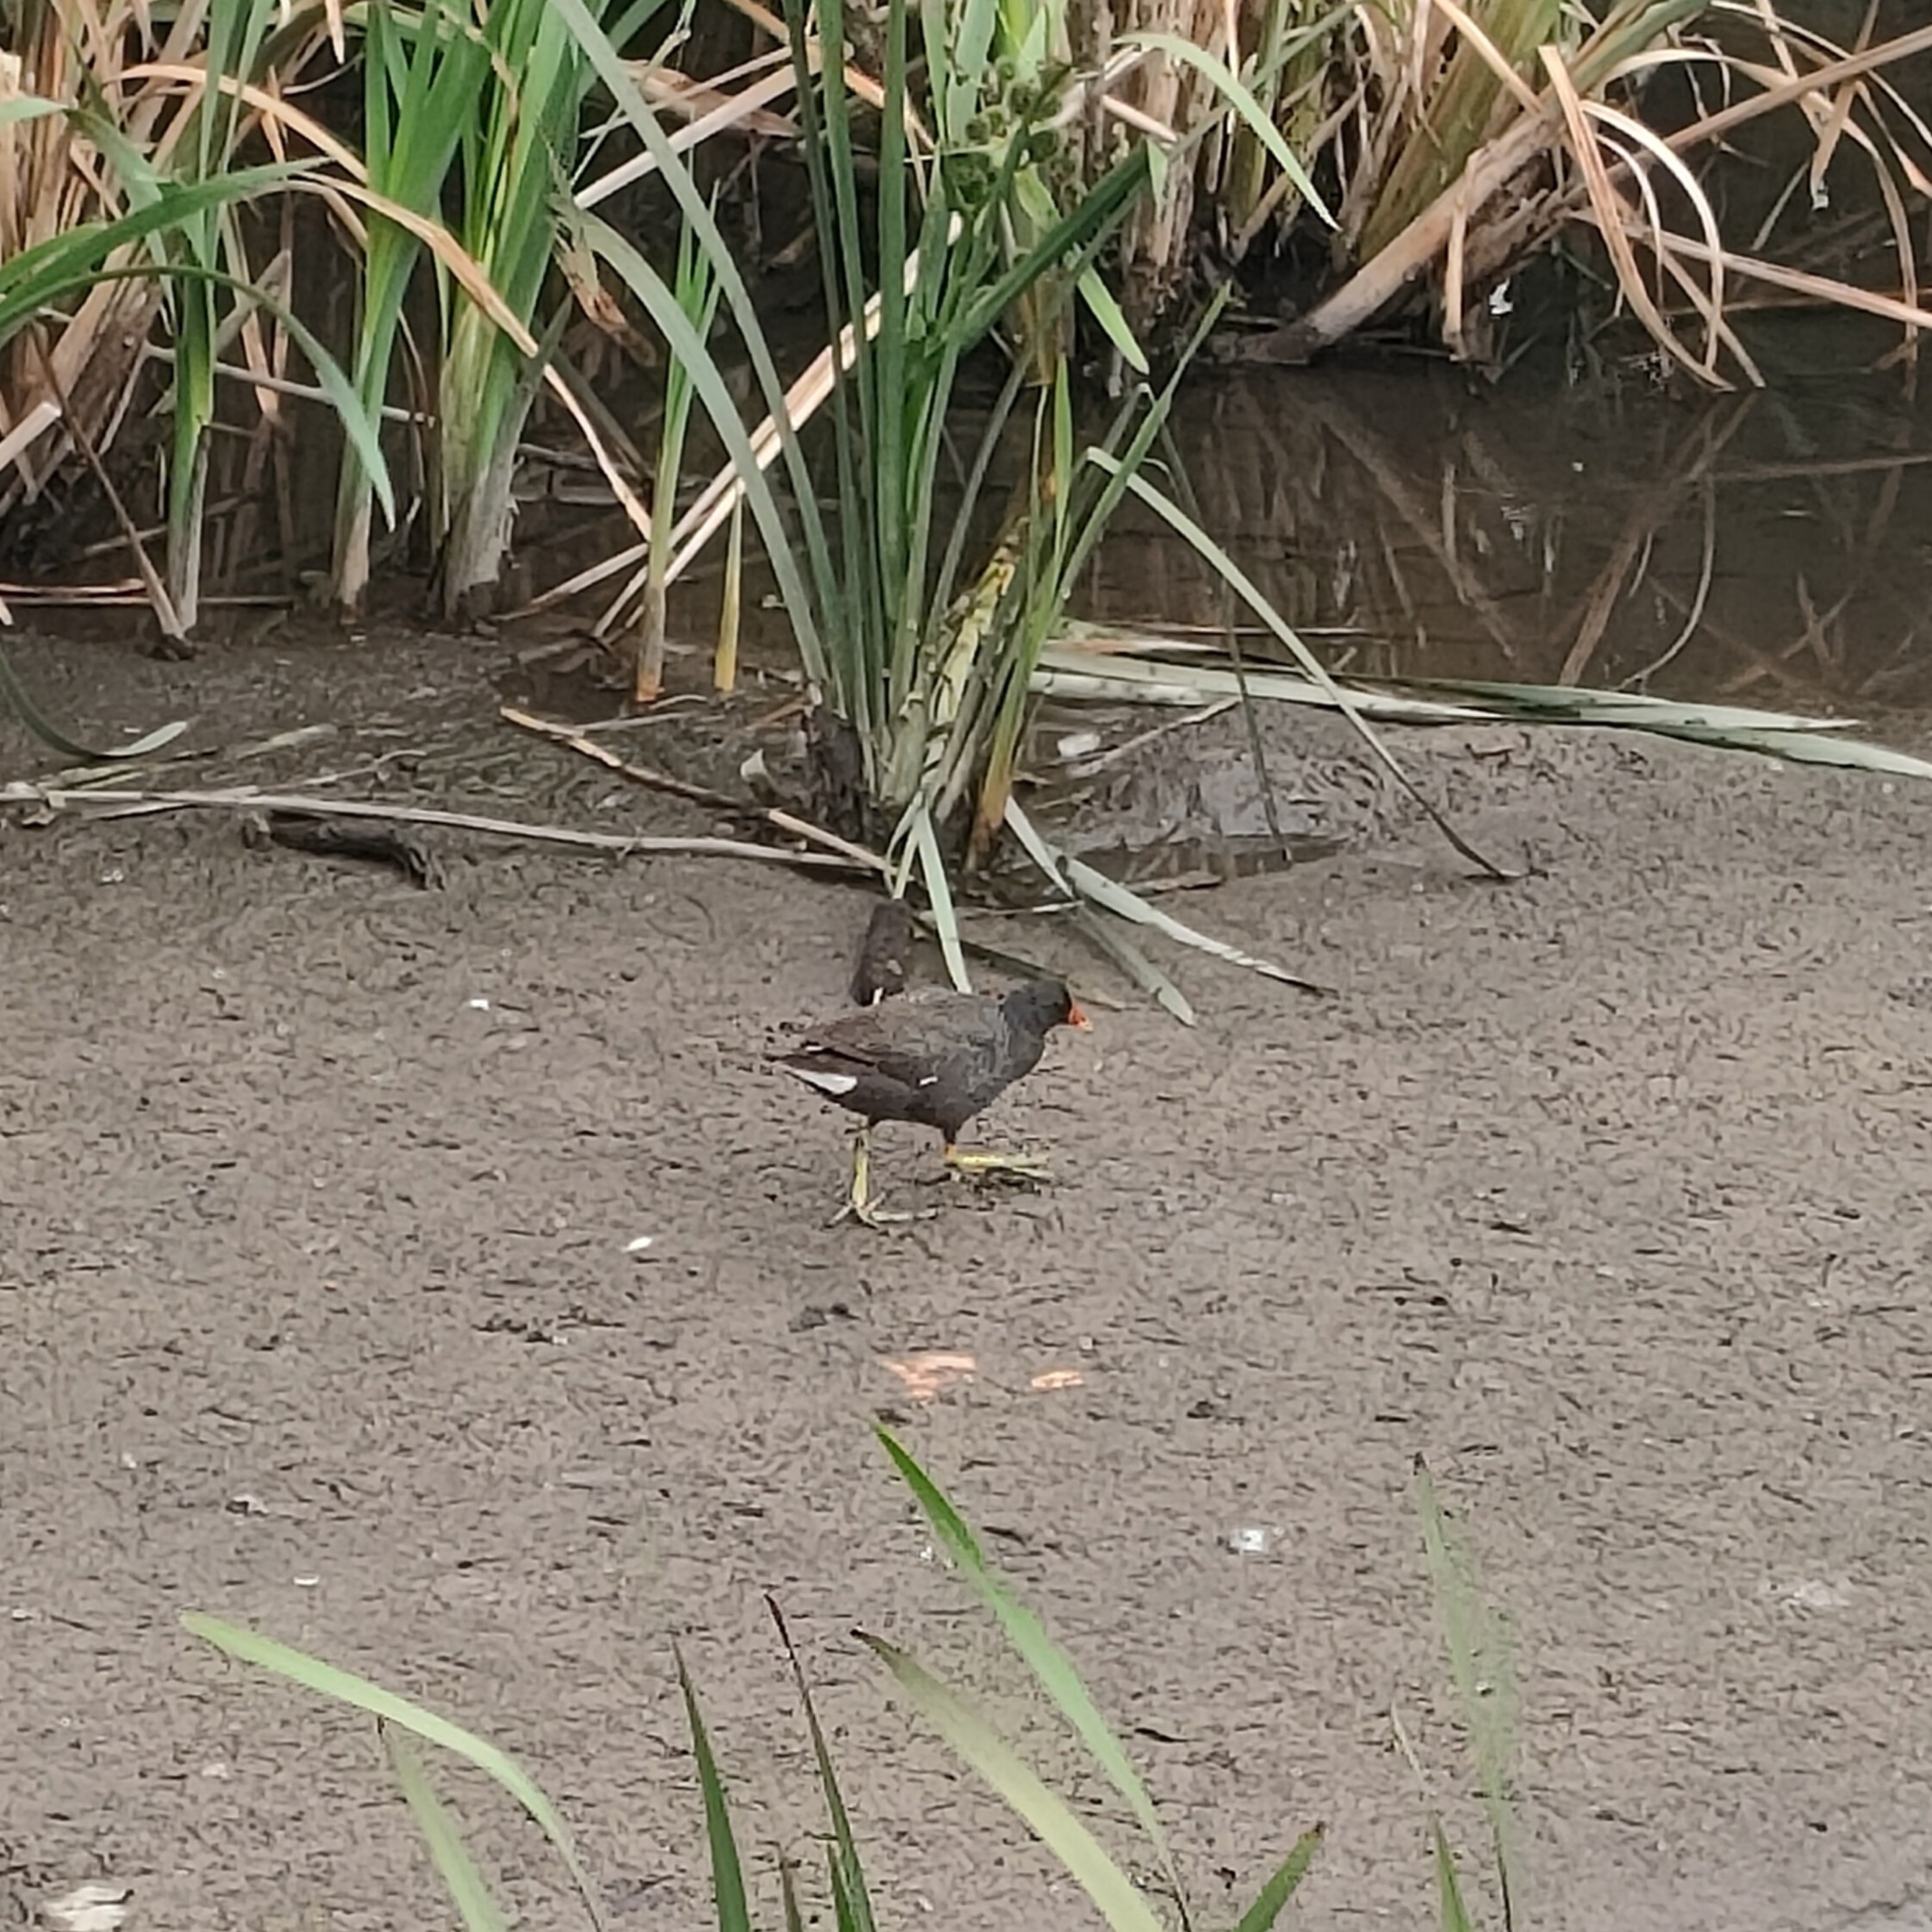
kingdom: Animalia
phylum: Chordata
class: Aves
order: Gruiformes
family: Rallidae
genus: Gallinula
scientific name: Gallinula chloropus
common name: Common moorhen
